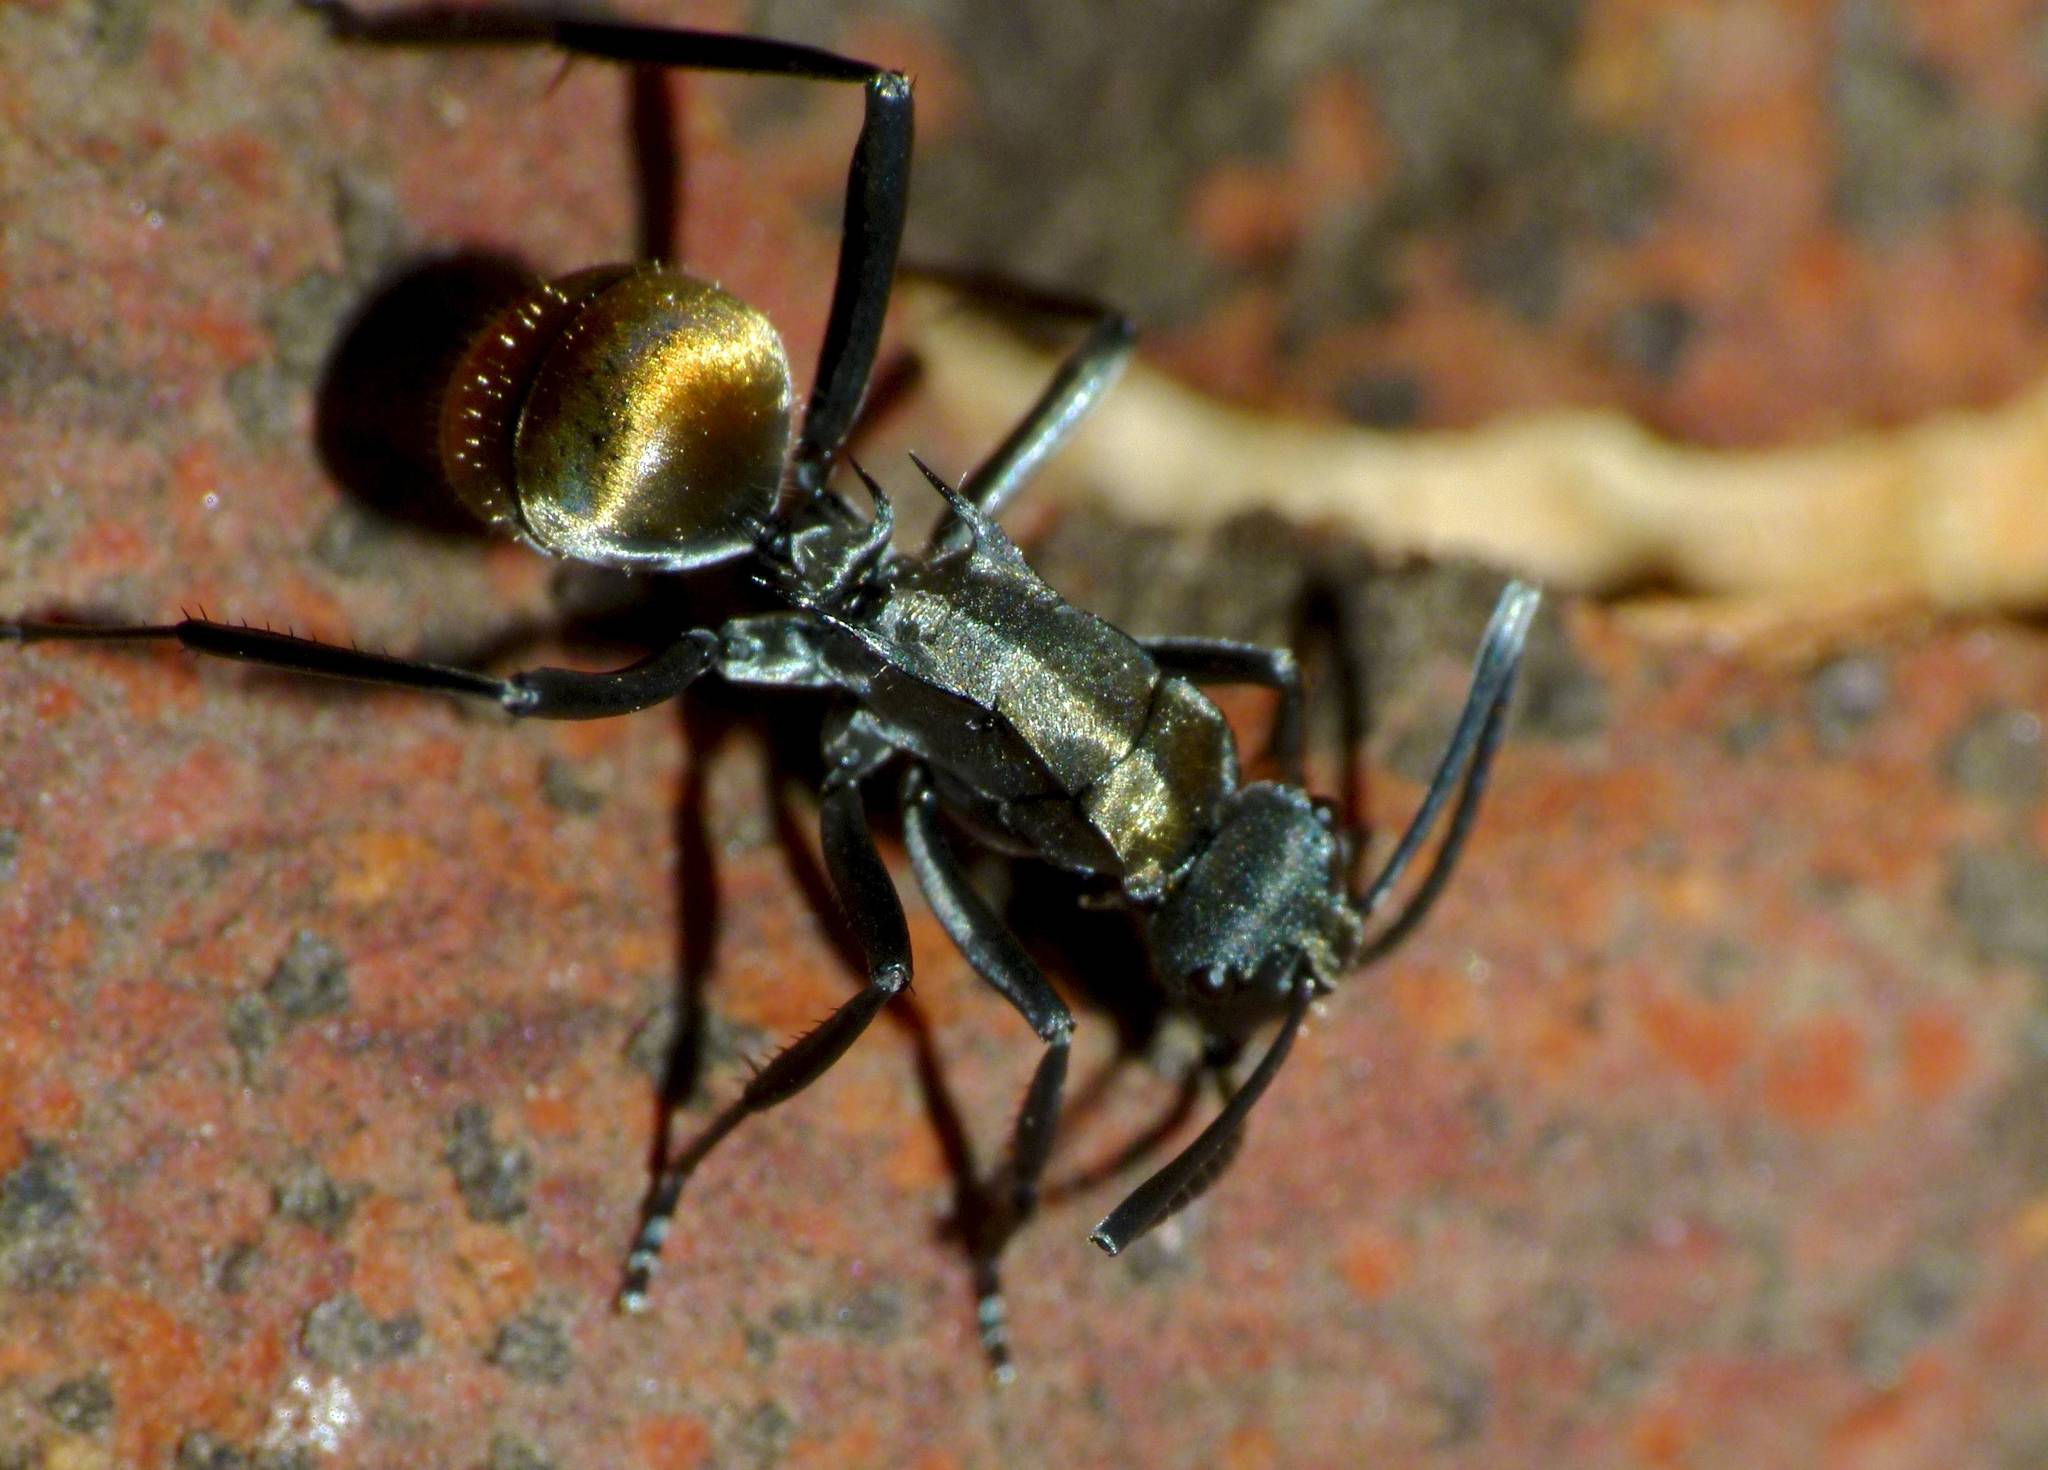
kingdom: Animalia
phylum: Arthropoda
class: Insecta
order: Hymenoptera
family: Formicidae
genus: Polyrhachis
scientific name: Polyrhachis ammon
